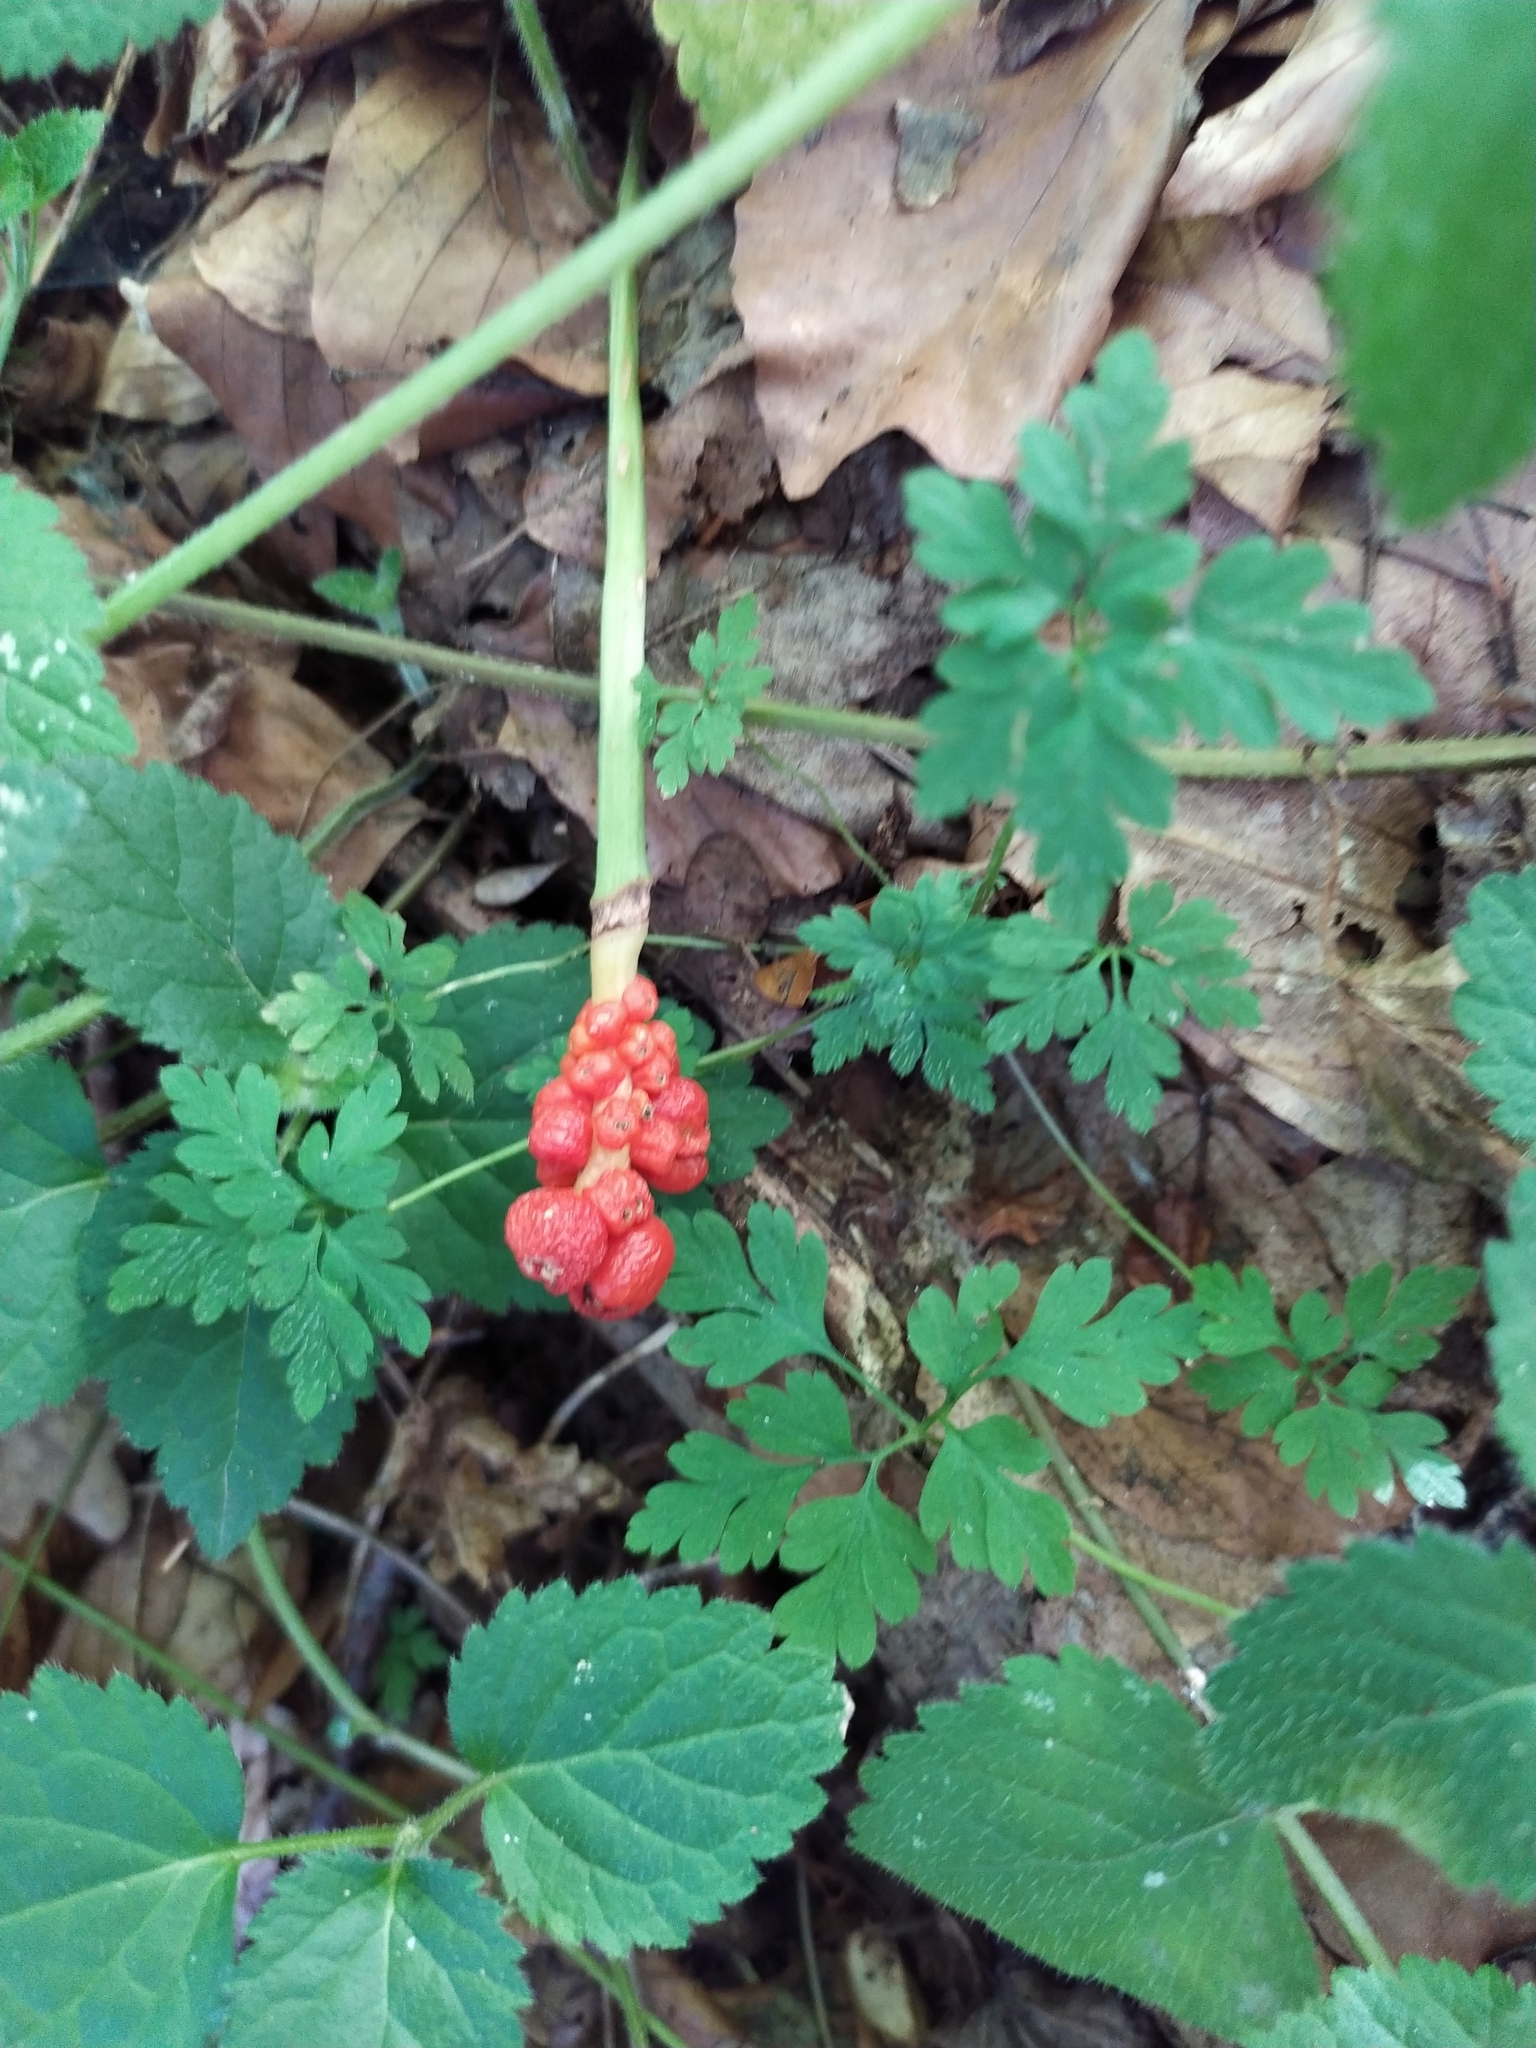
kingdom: Plantae
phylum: Tracheophyta
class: Liliopsida
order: Alismatales
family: Araceae
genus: Arum
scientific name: Arum maculatum
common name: Lords-and-ladies
